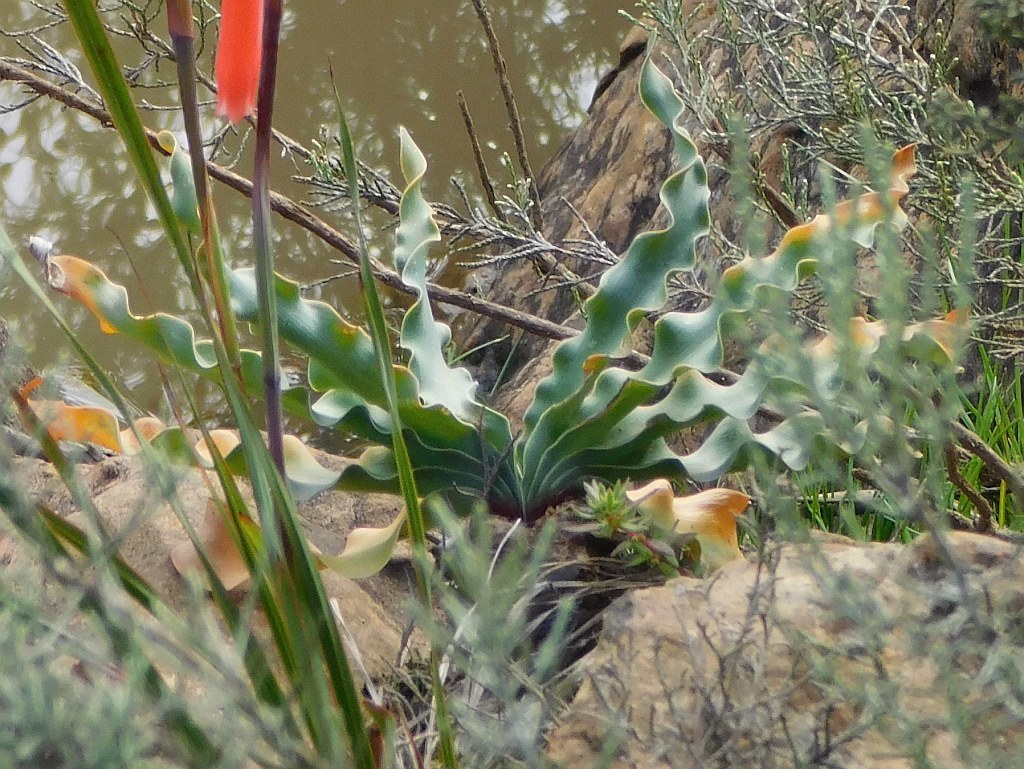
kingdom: Plantae
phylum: Tracheophyta
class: Liliopsida
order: Asparagales
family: Amaryllidaceae
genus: Boophone
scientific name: Boophone disticha
